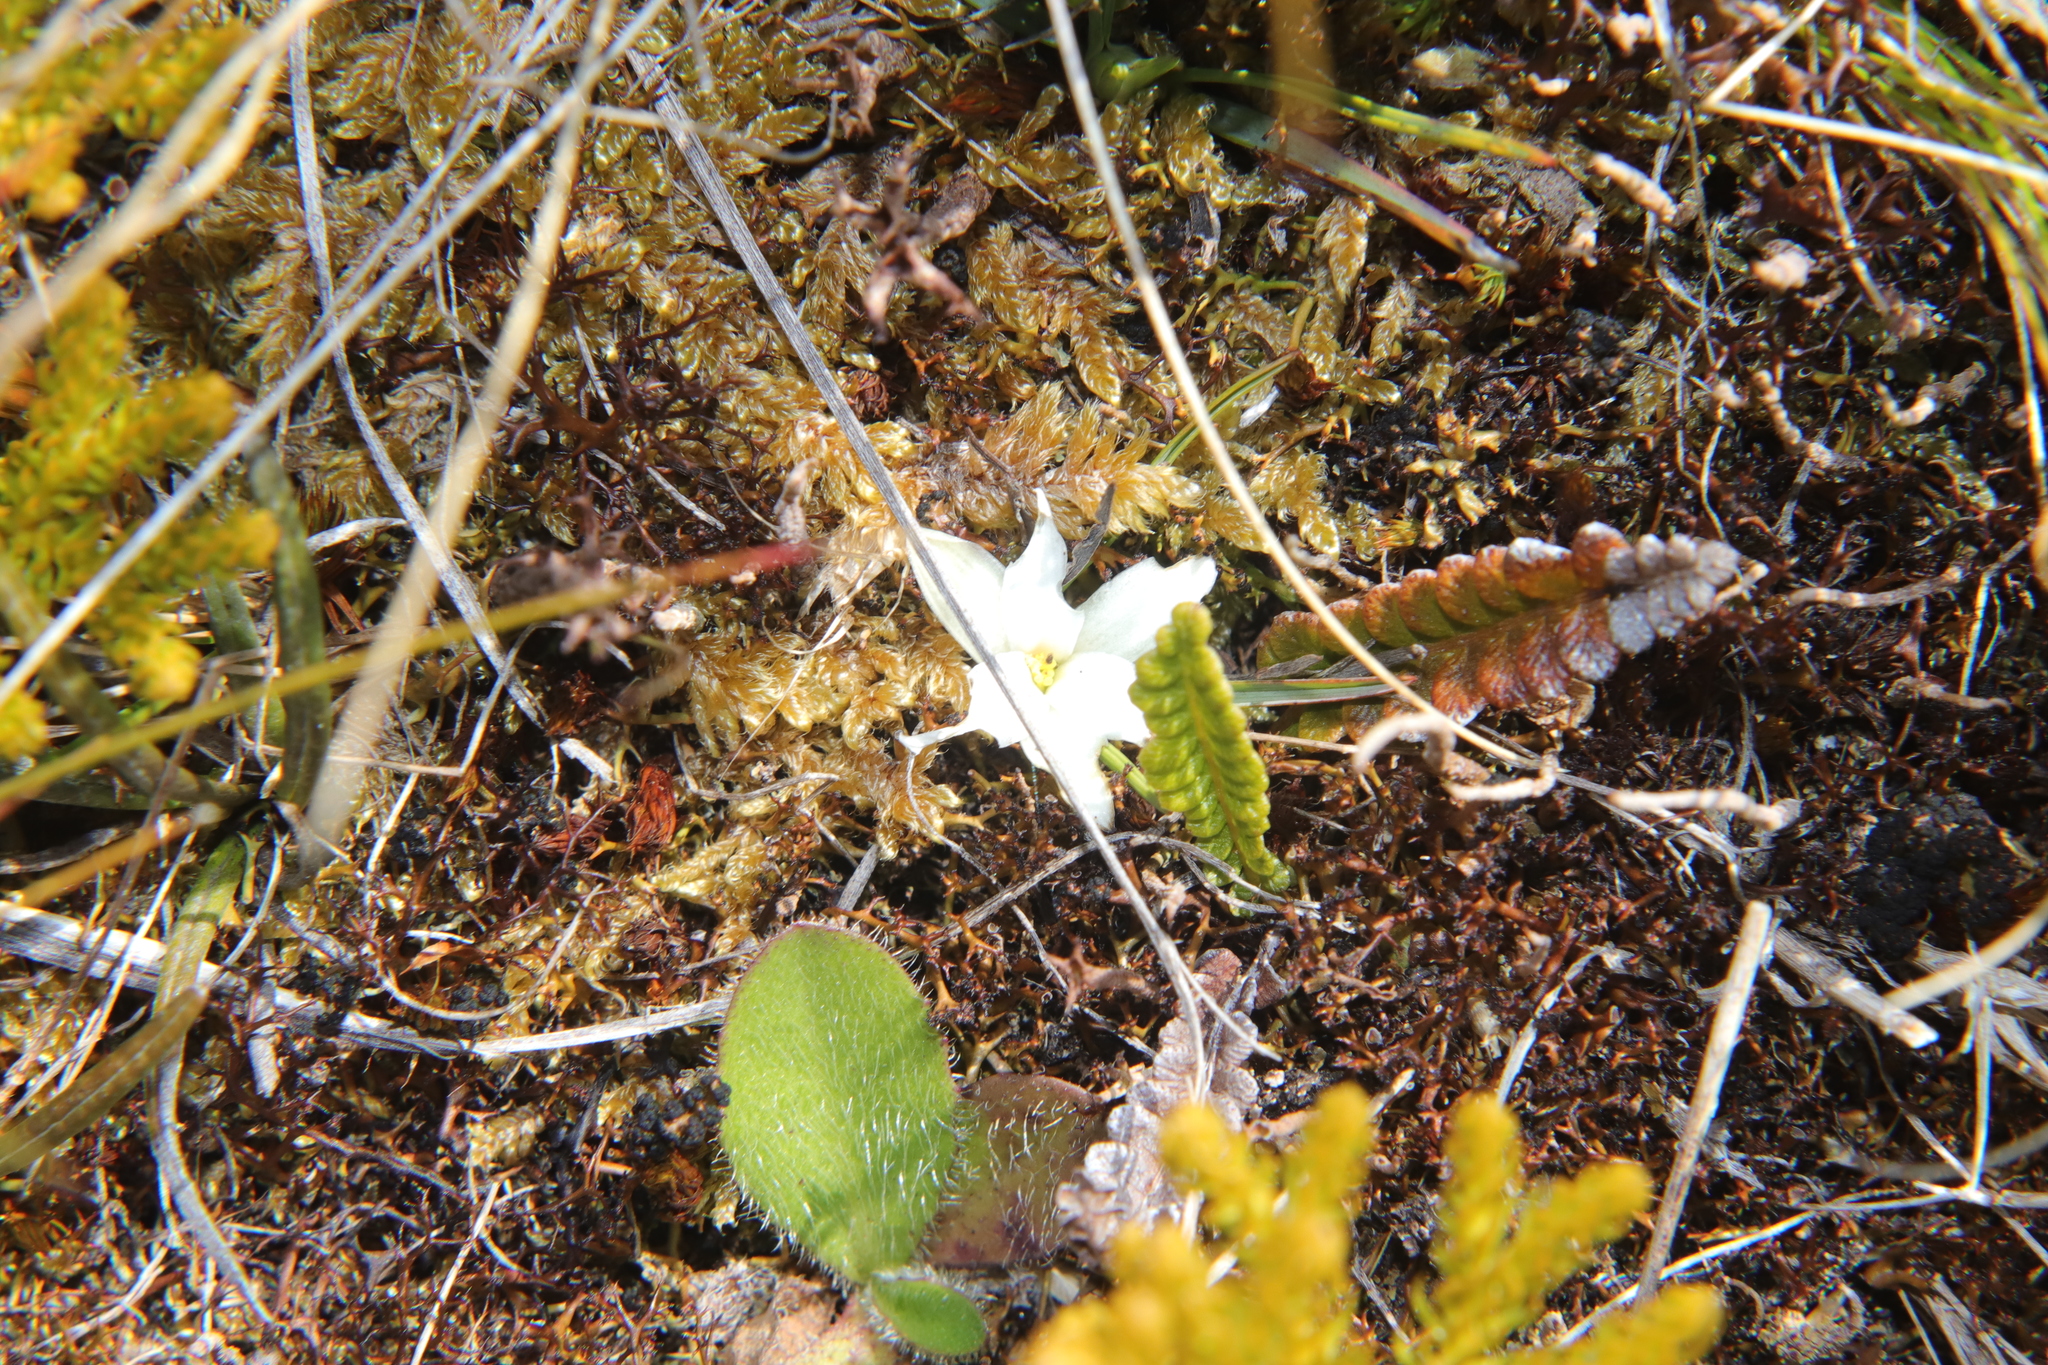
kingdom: Plantae
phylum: Tracheophyta
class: Liliopsida
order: Asparagales
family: Asphodelaceae
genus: Herpolirion
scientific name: Herpolirion novae-zelandiae
